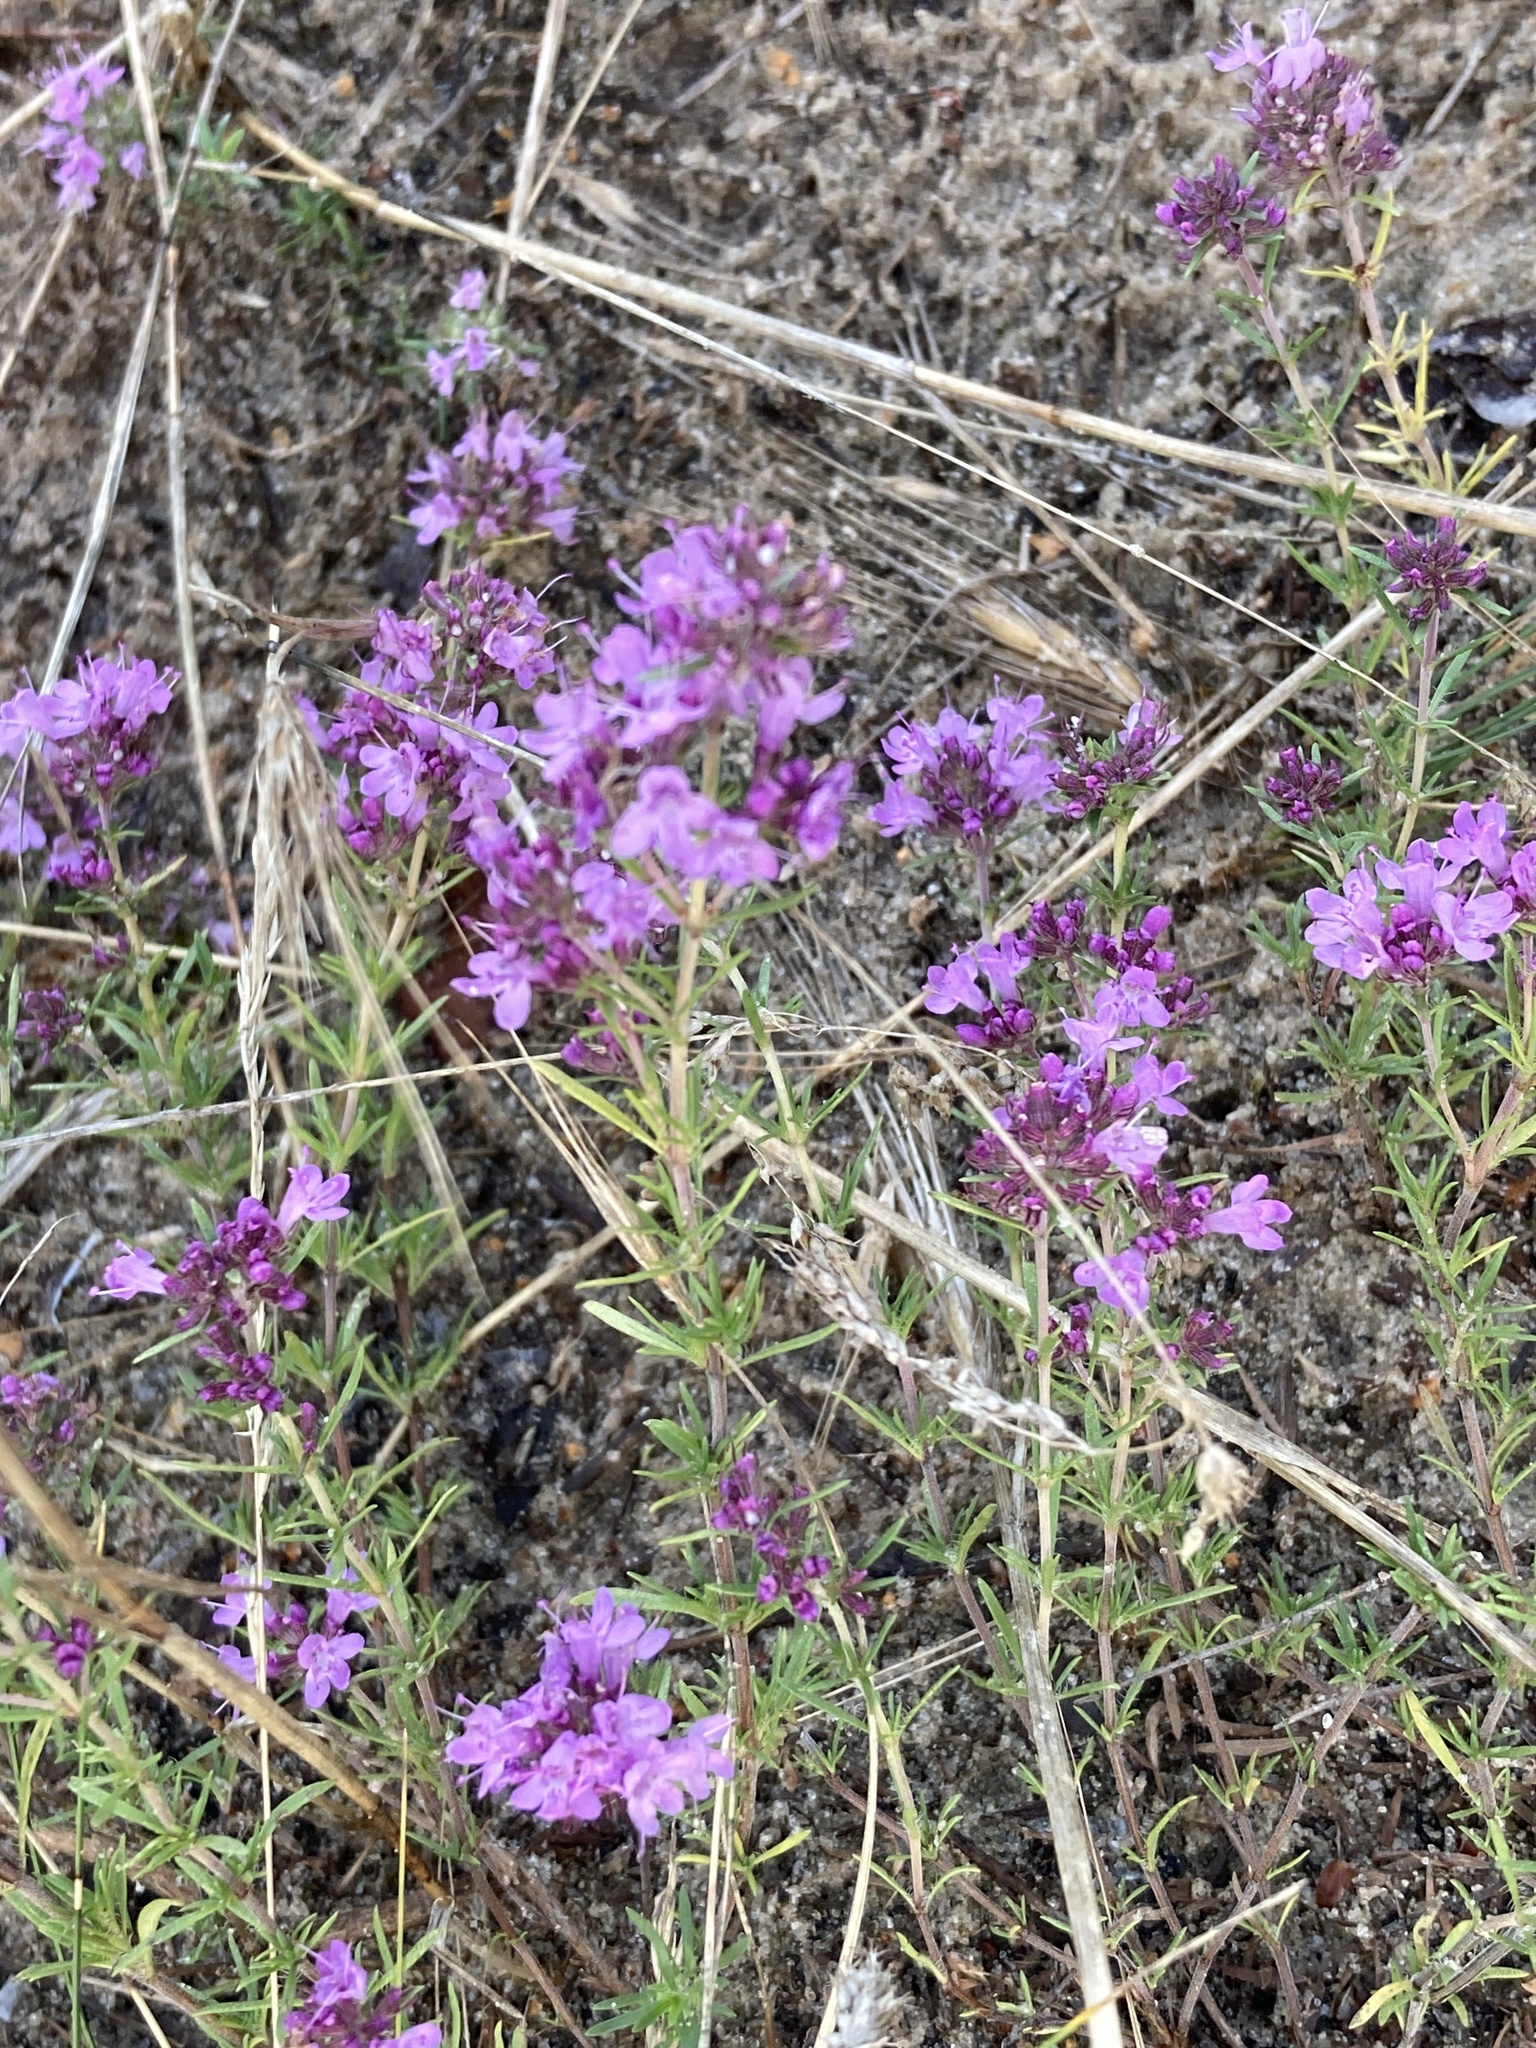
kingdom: Plantae
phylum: Tracheophyta
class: Magnoliopsida
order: Lamiales
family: Lamiaceae
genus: Thymus
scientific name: Thymus pallasianus
